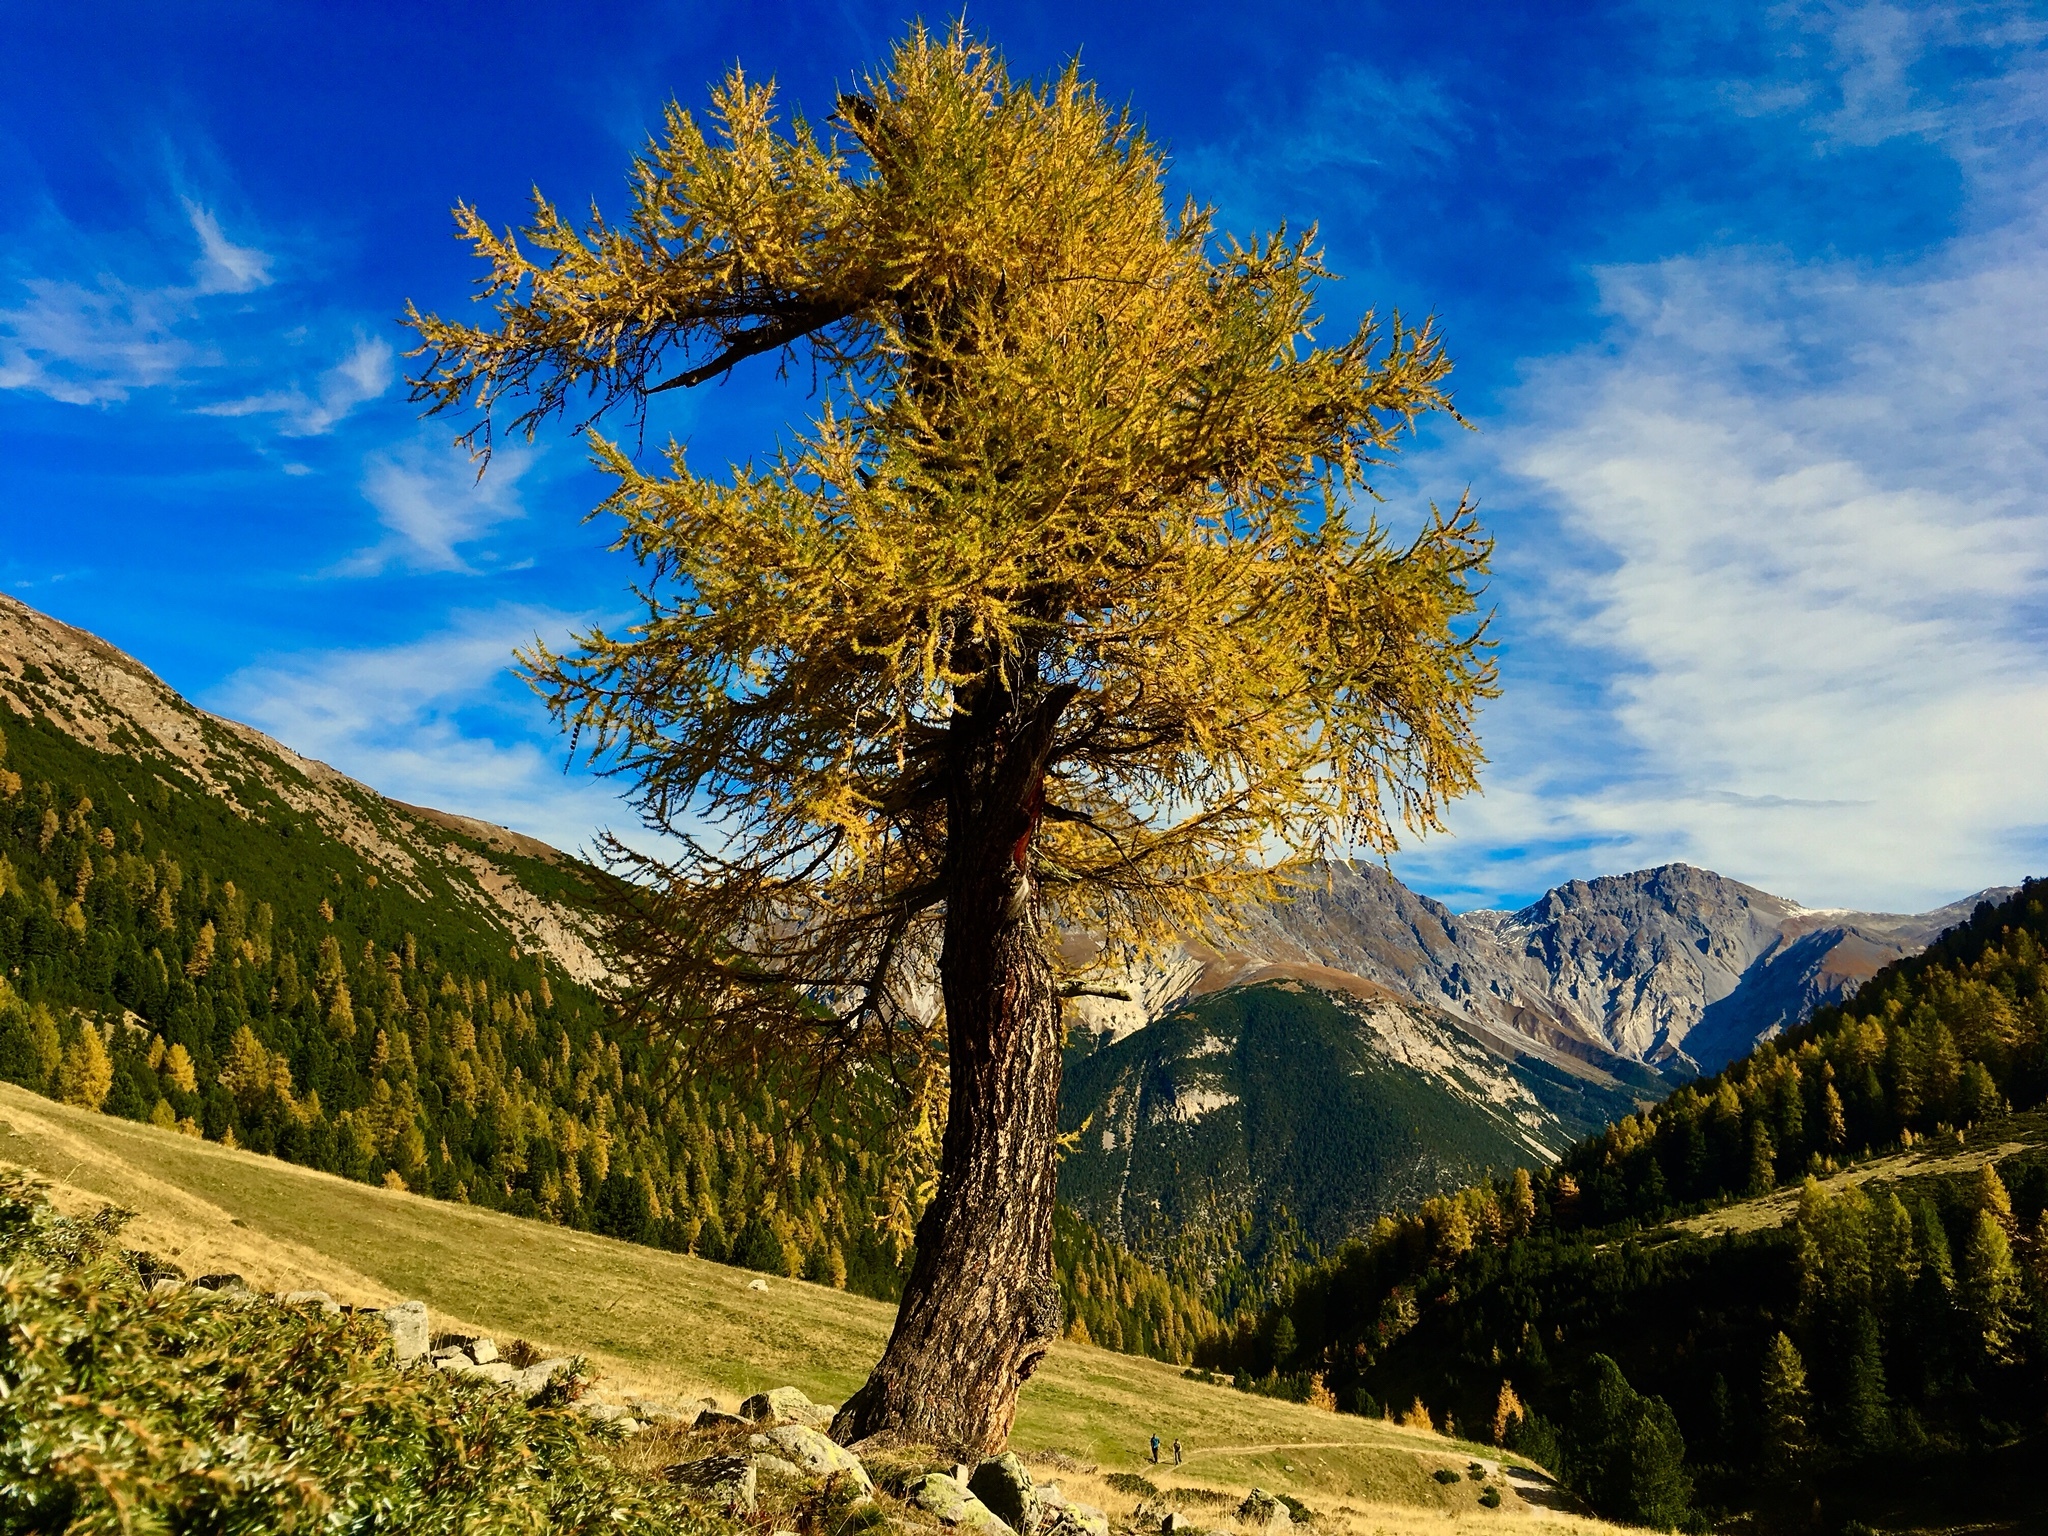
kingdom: Plantae
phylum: Tracheophyta
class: Pinopsida
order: Pinales
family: Pinaceae
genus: Larix
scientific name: Larix decidua
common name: European larch
